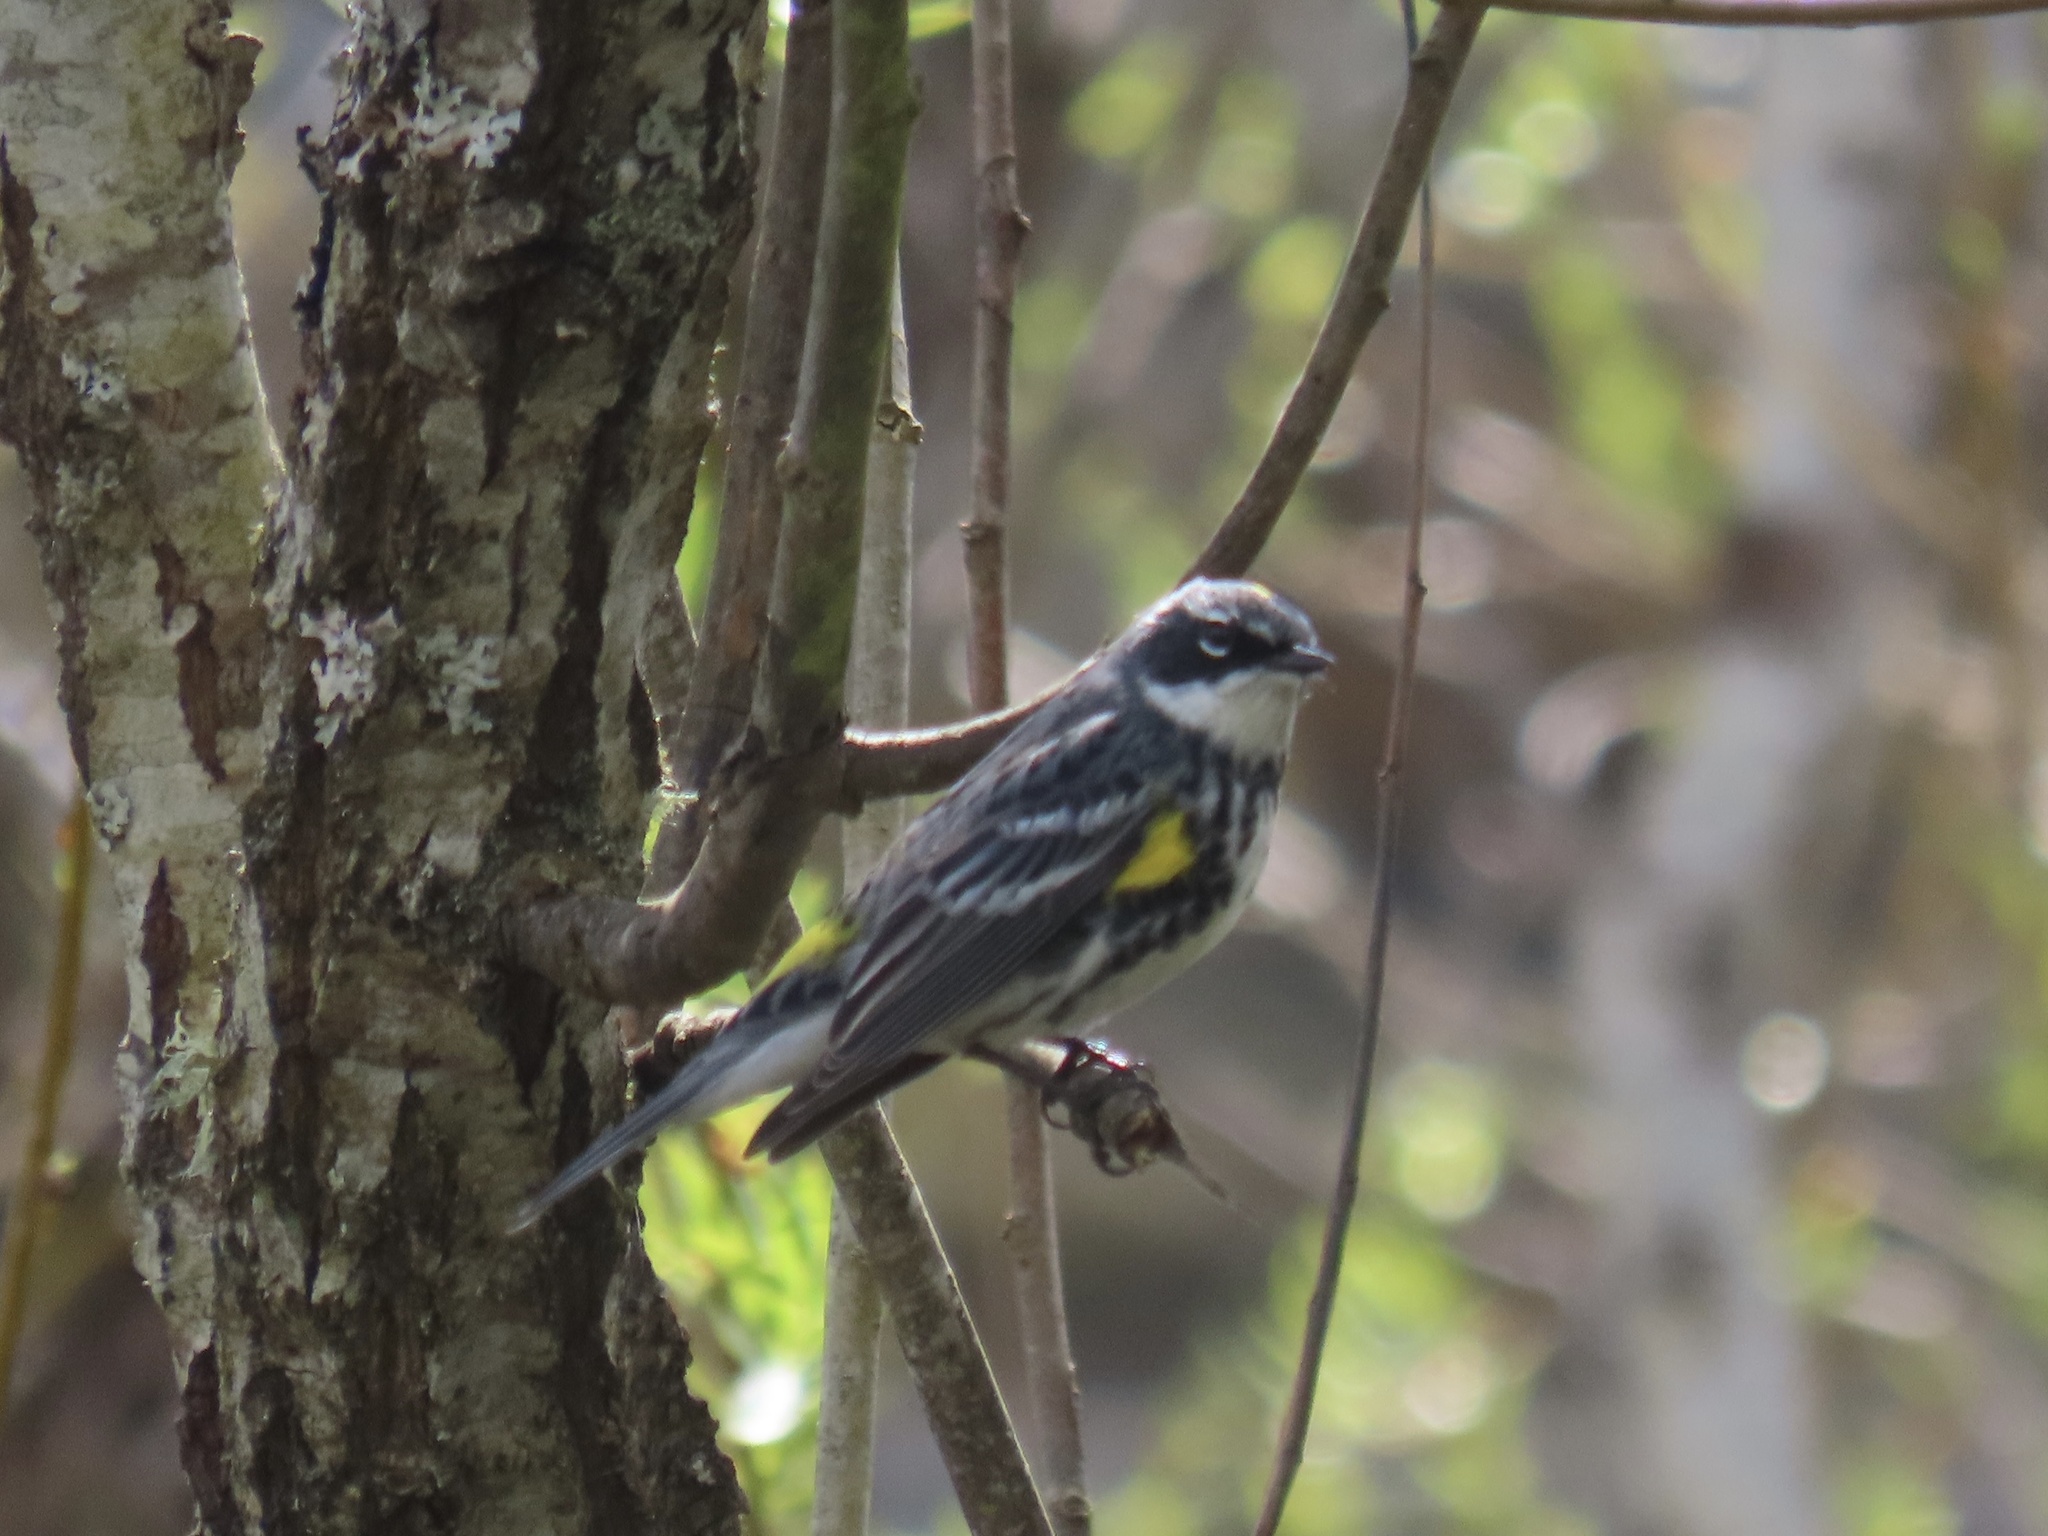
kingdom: Animalia
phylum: Chordata
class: Aves
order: Passeriformes
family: Parulidae
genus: Setophaga
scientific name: Setophaga coronata
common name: Myrtle warbler
